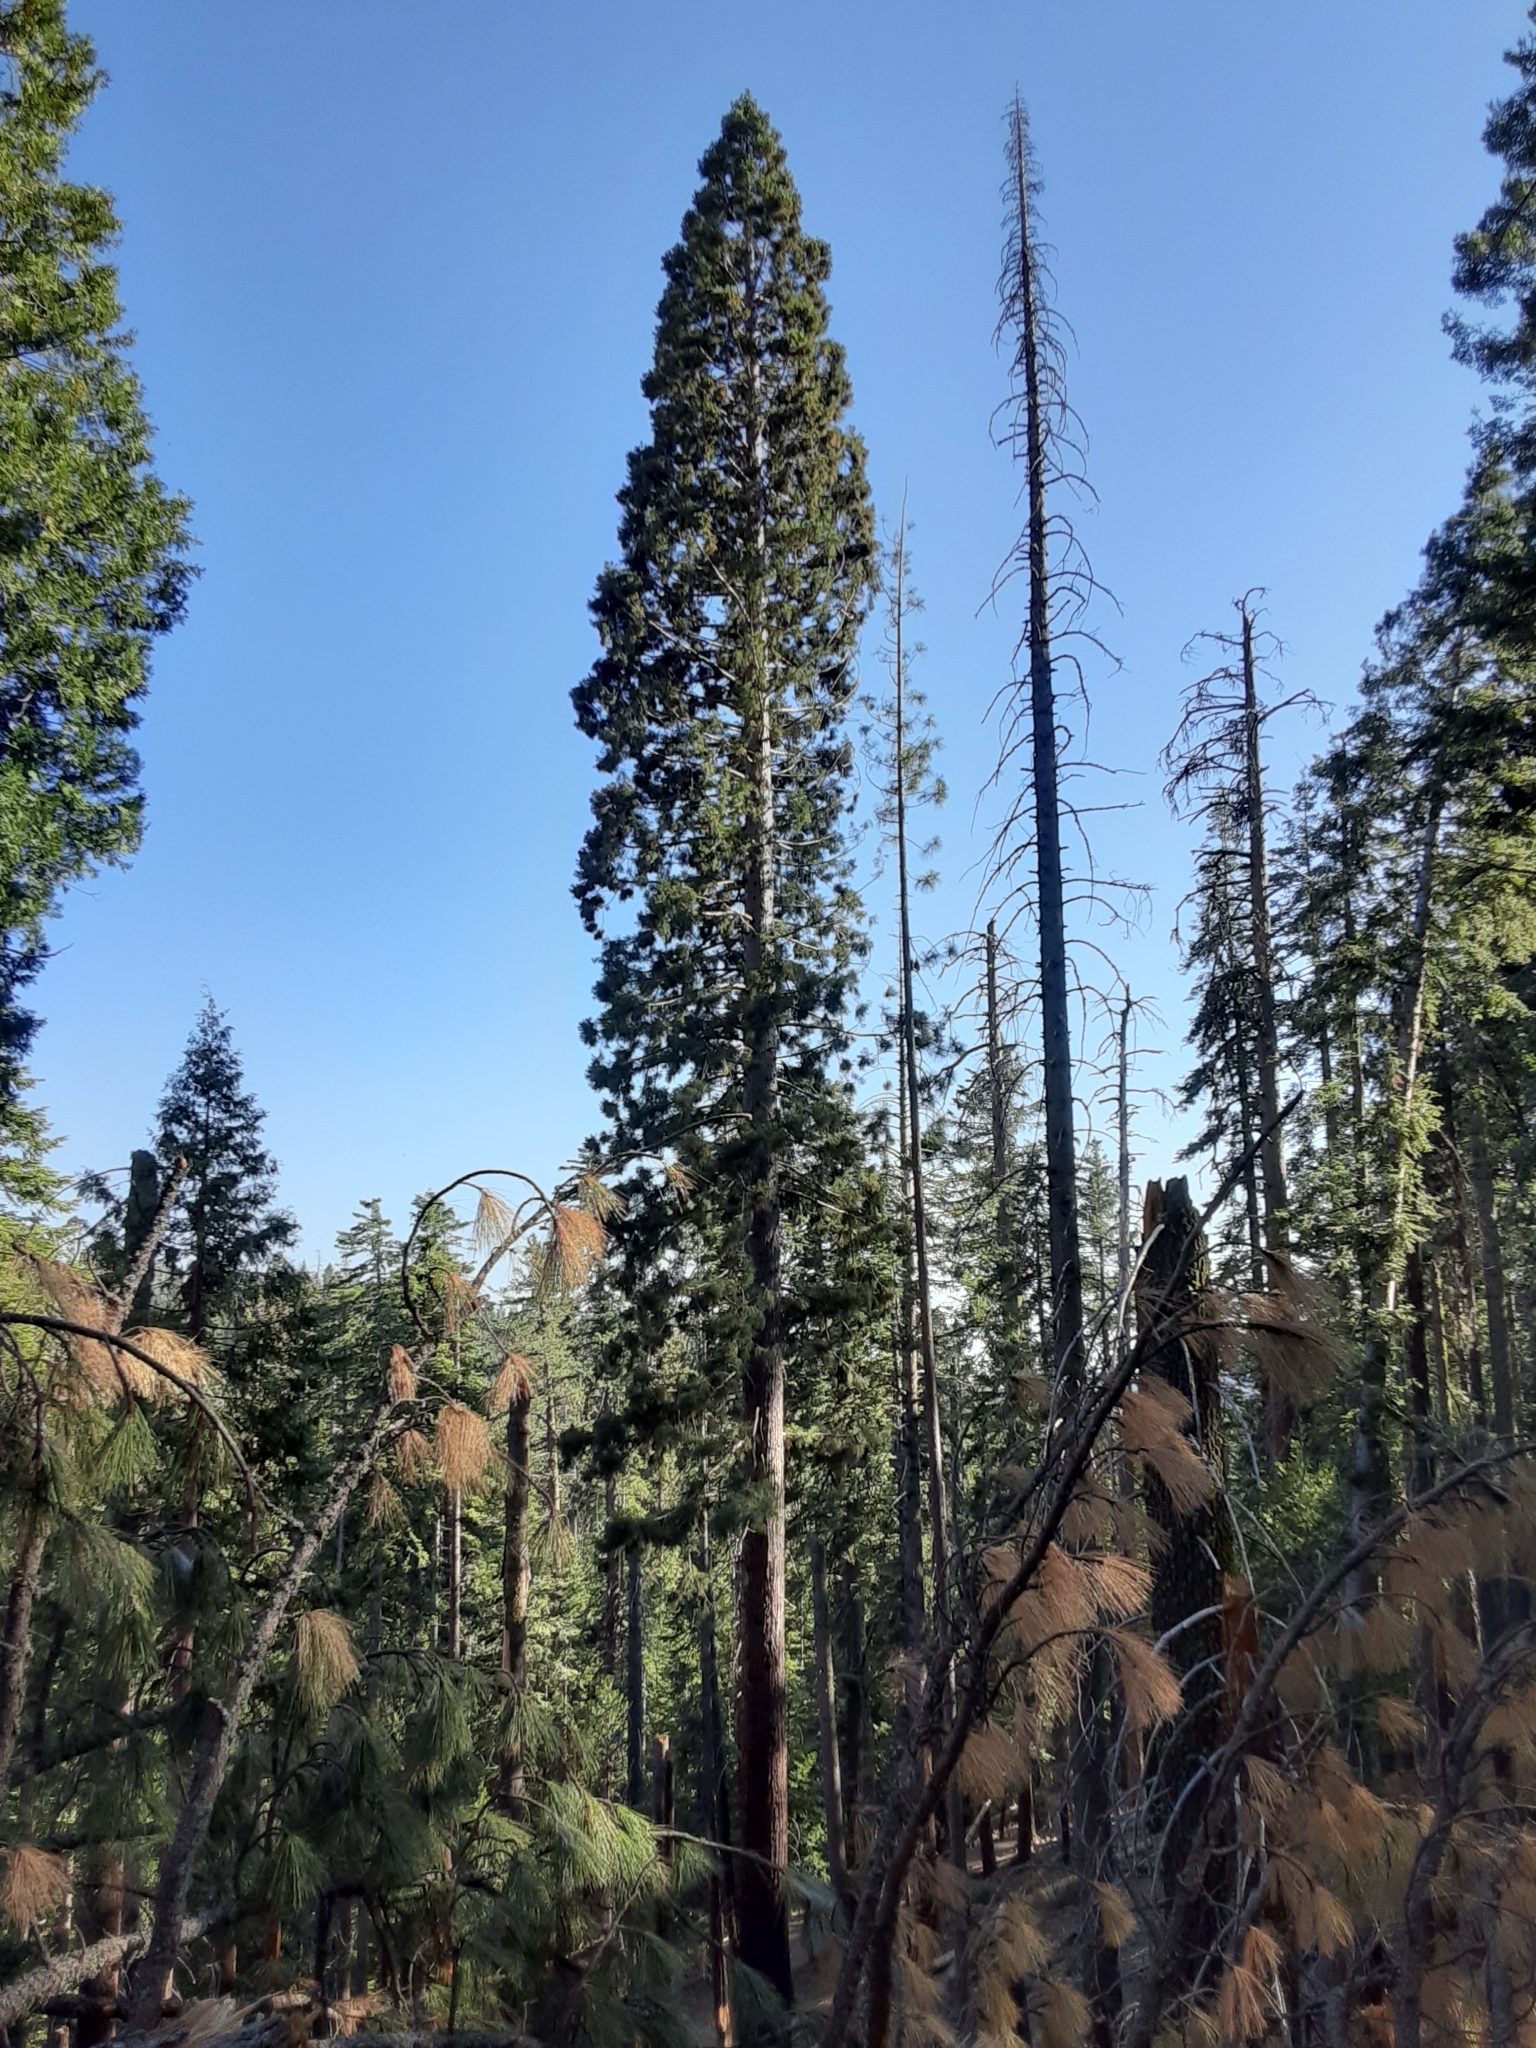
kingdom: Plantae
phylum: Tracheophyta
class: Pinopsida
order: Pinales
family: Cupressaceae
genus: Sequoiadendron
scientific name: Sequoiadendron giganteum
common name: Wellingtonia
